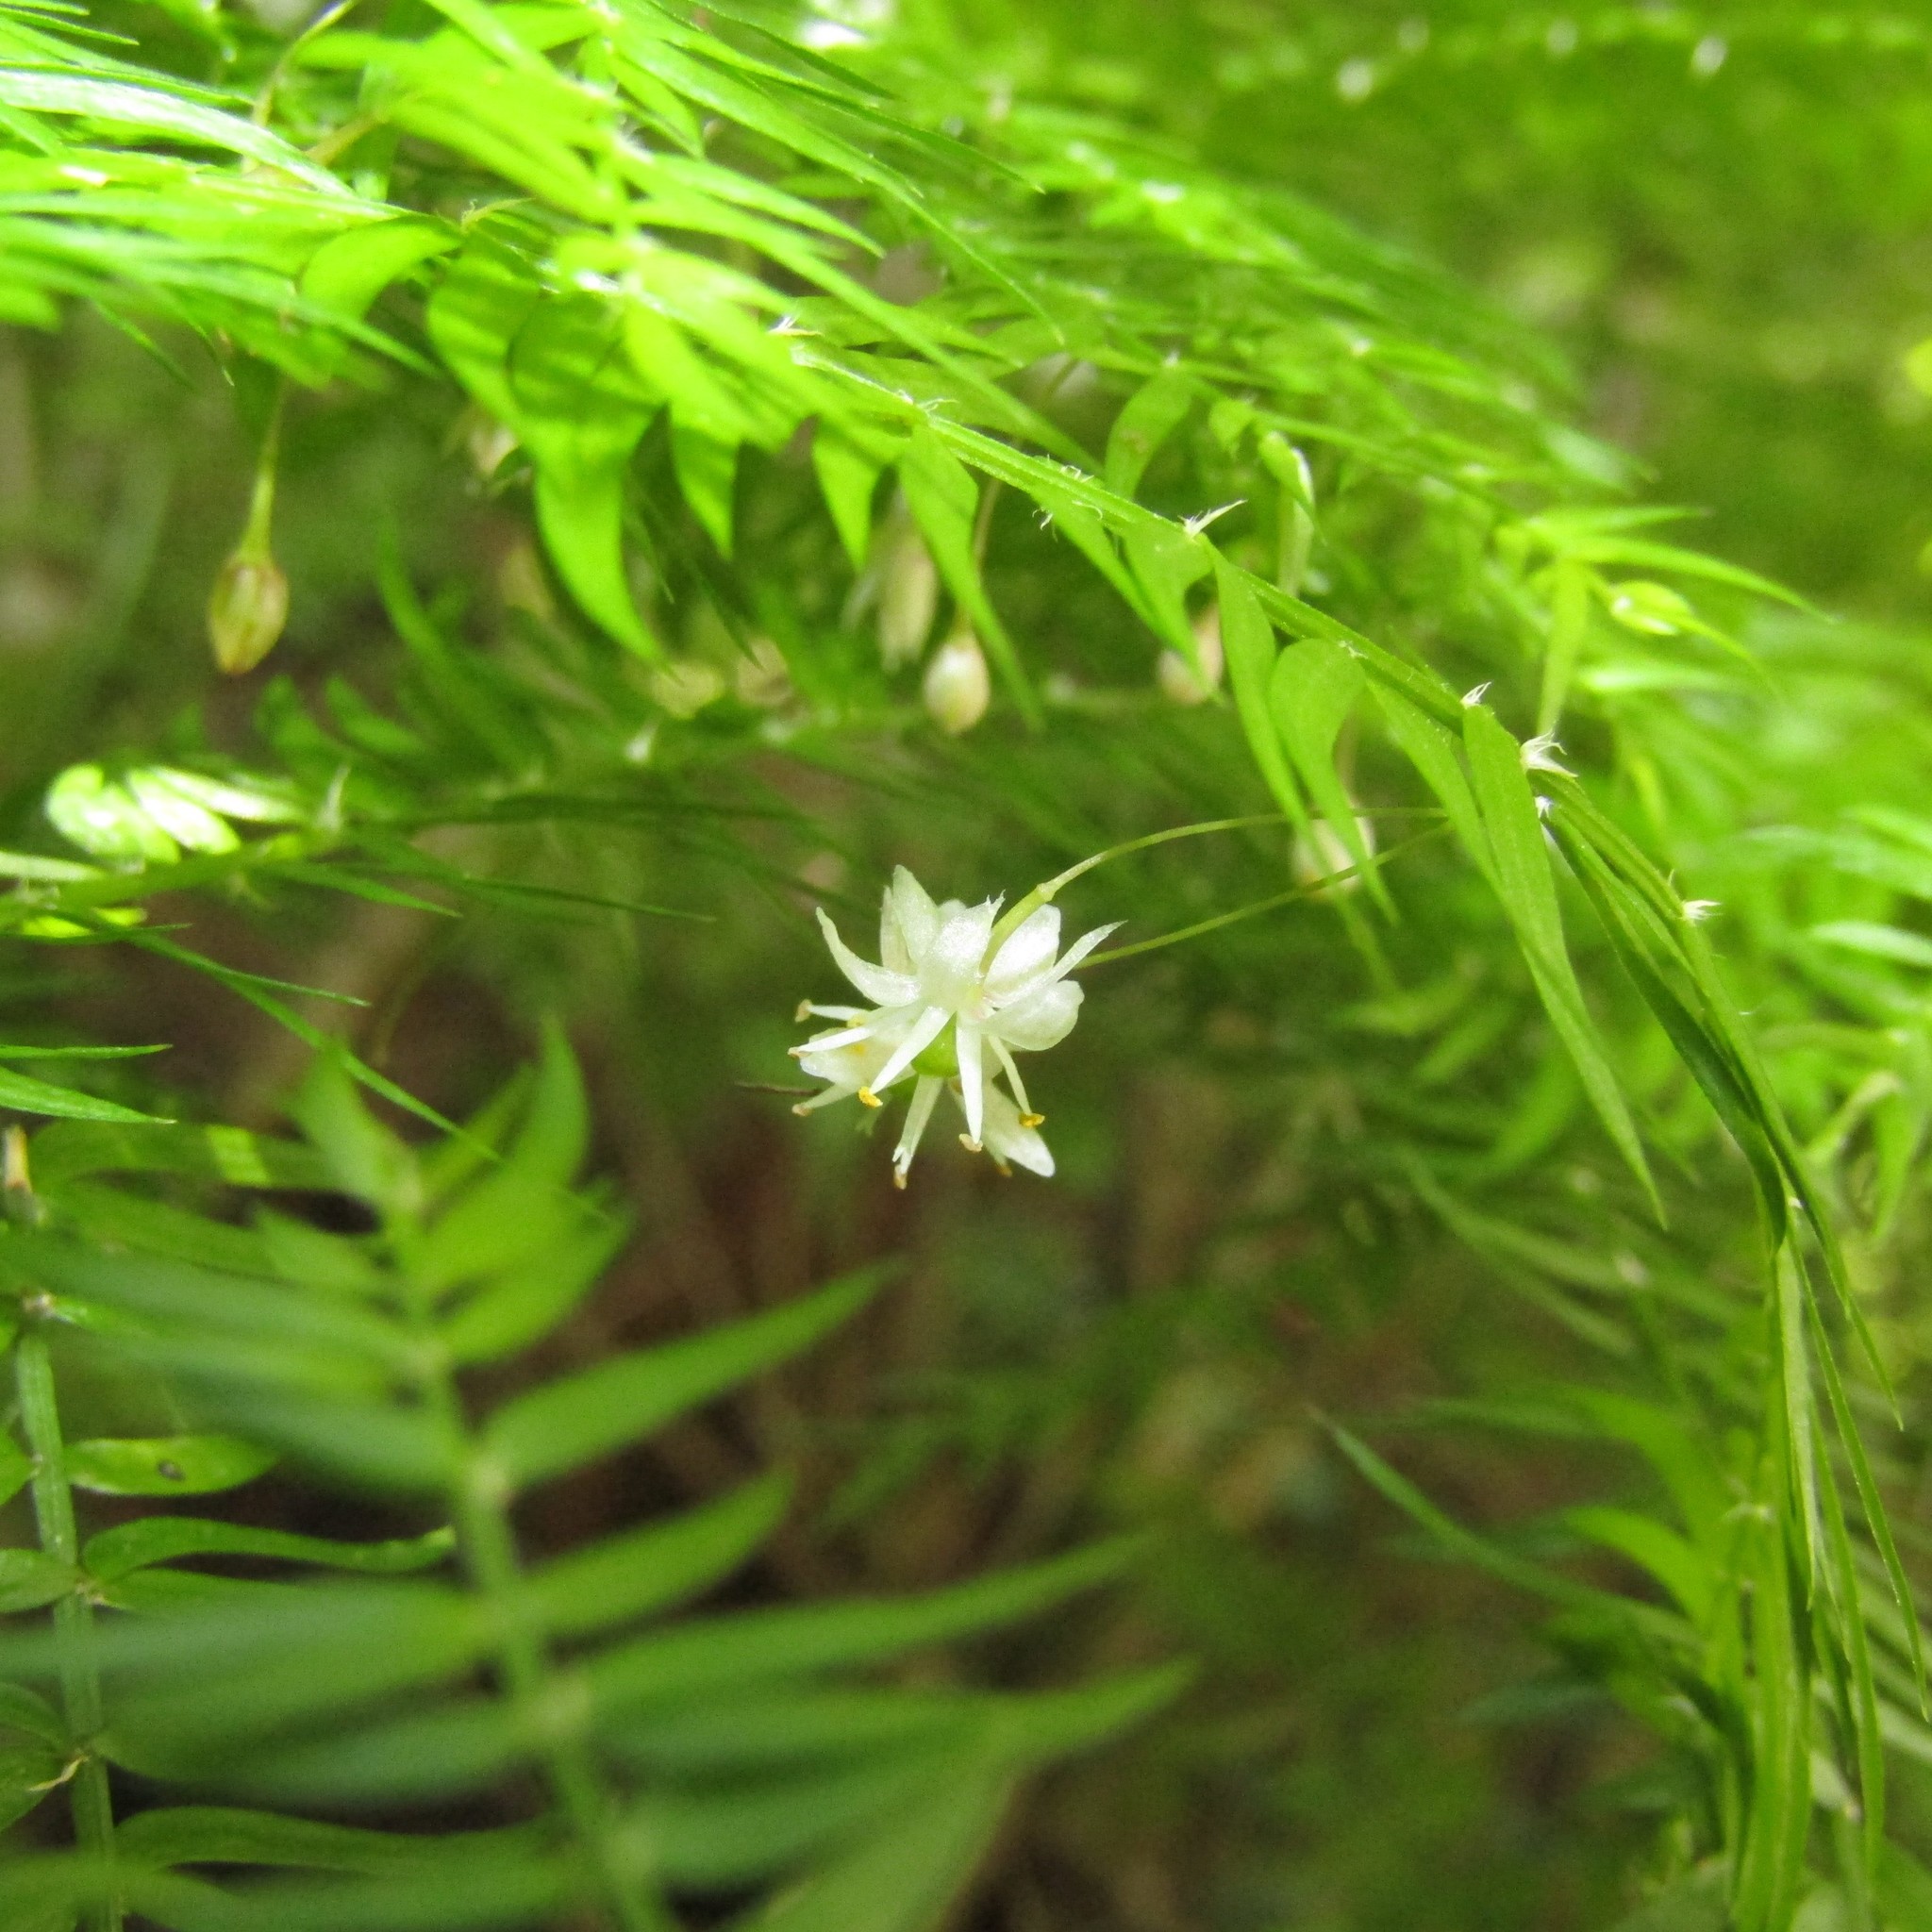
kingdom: Plantae
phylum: Tracheophyta
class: Liliopsida
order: Asparagales
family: Asparagaceae
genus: Asparagus
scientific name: Asparagus scandens
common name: Asparagus-fern
